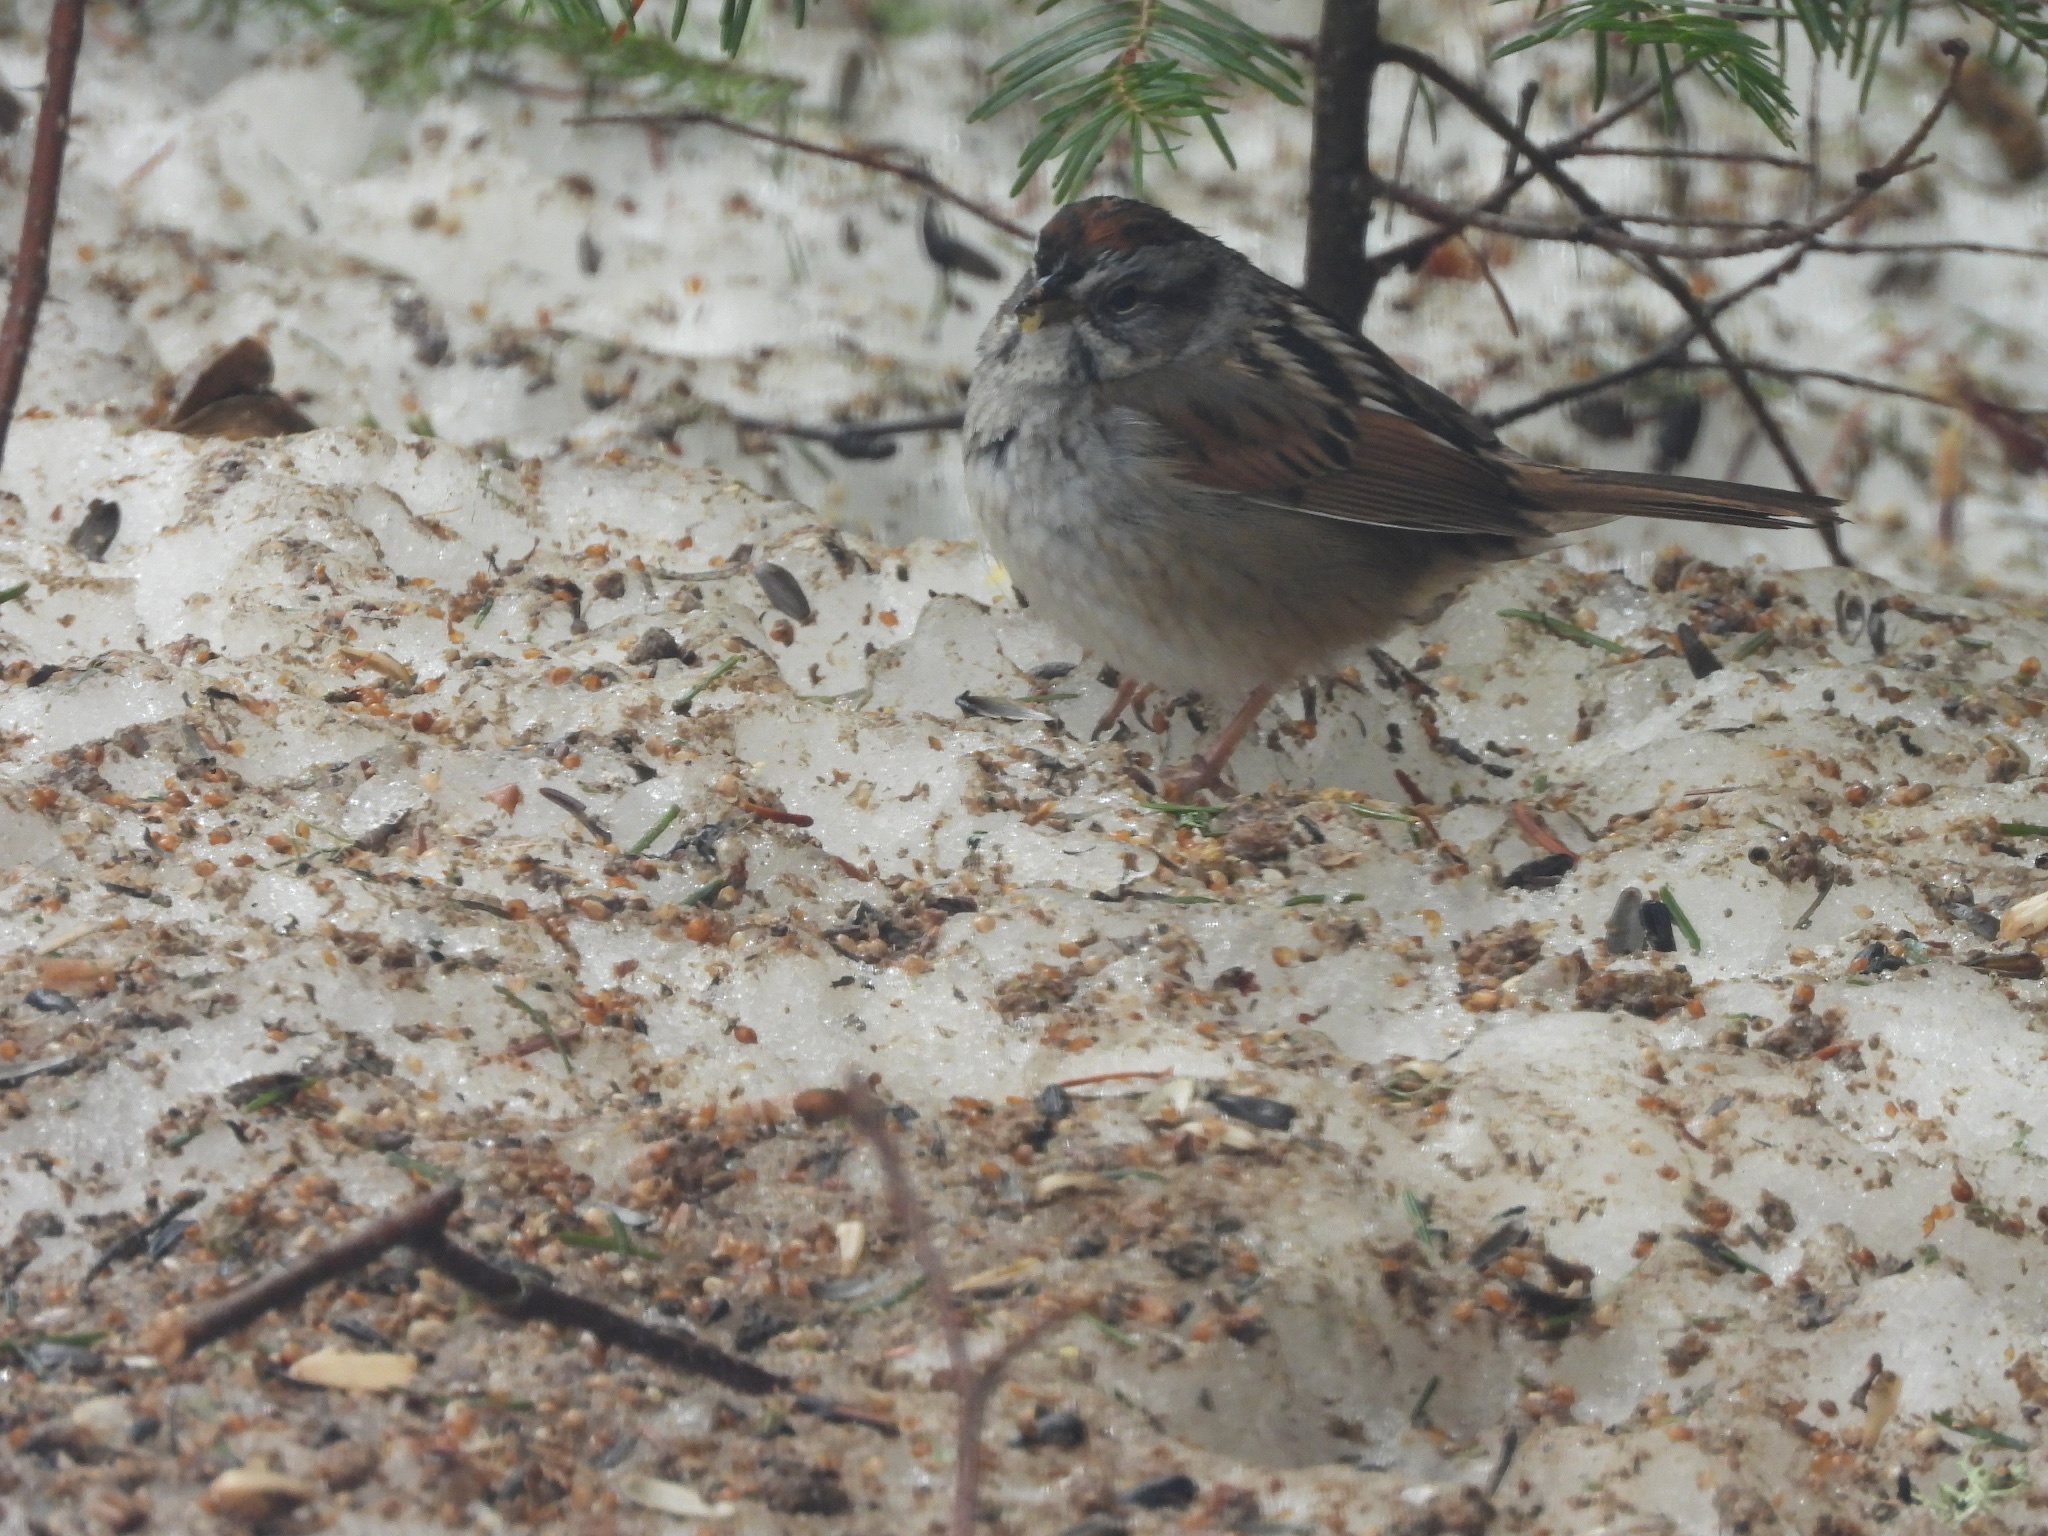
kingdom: Animalia
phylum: Chordata
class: Aves
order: Passeriformes
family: Passerellidae
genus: Melospiza
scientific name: Melospiza georgiana
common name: Swamp sparrow
